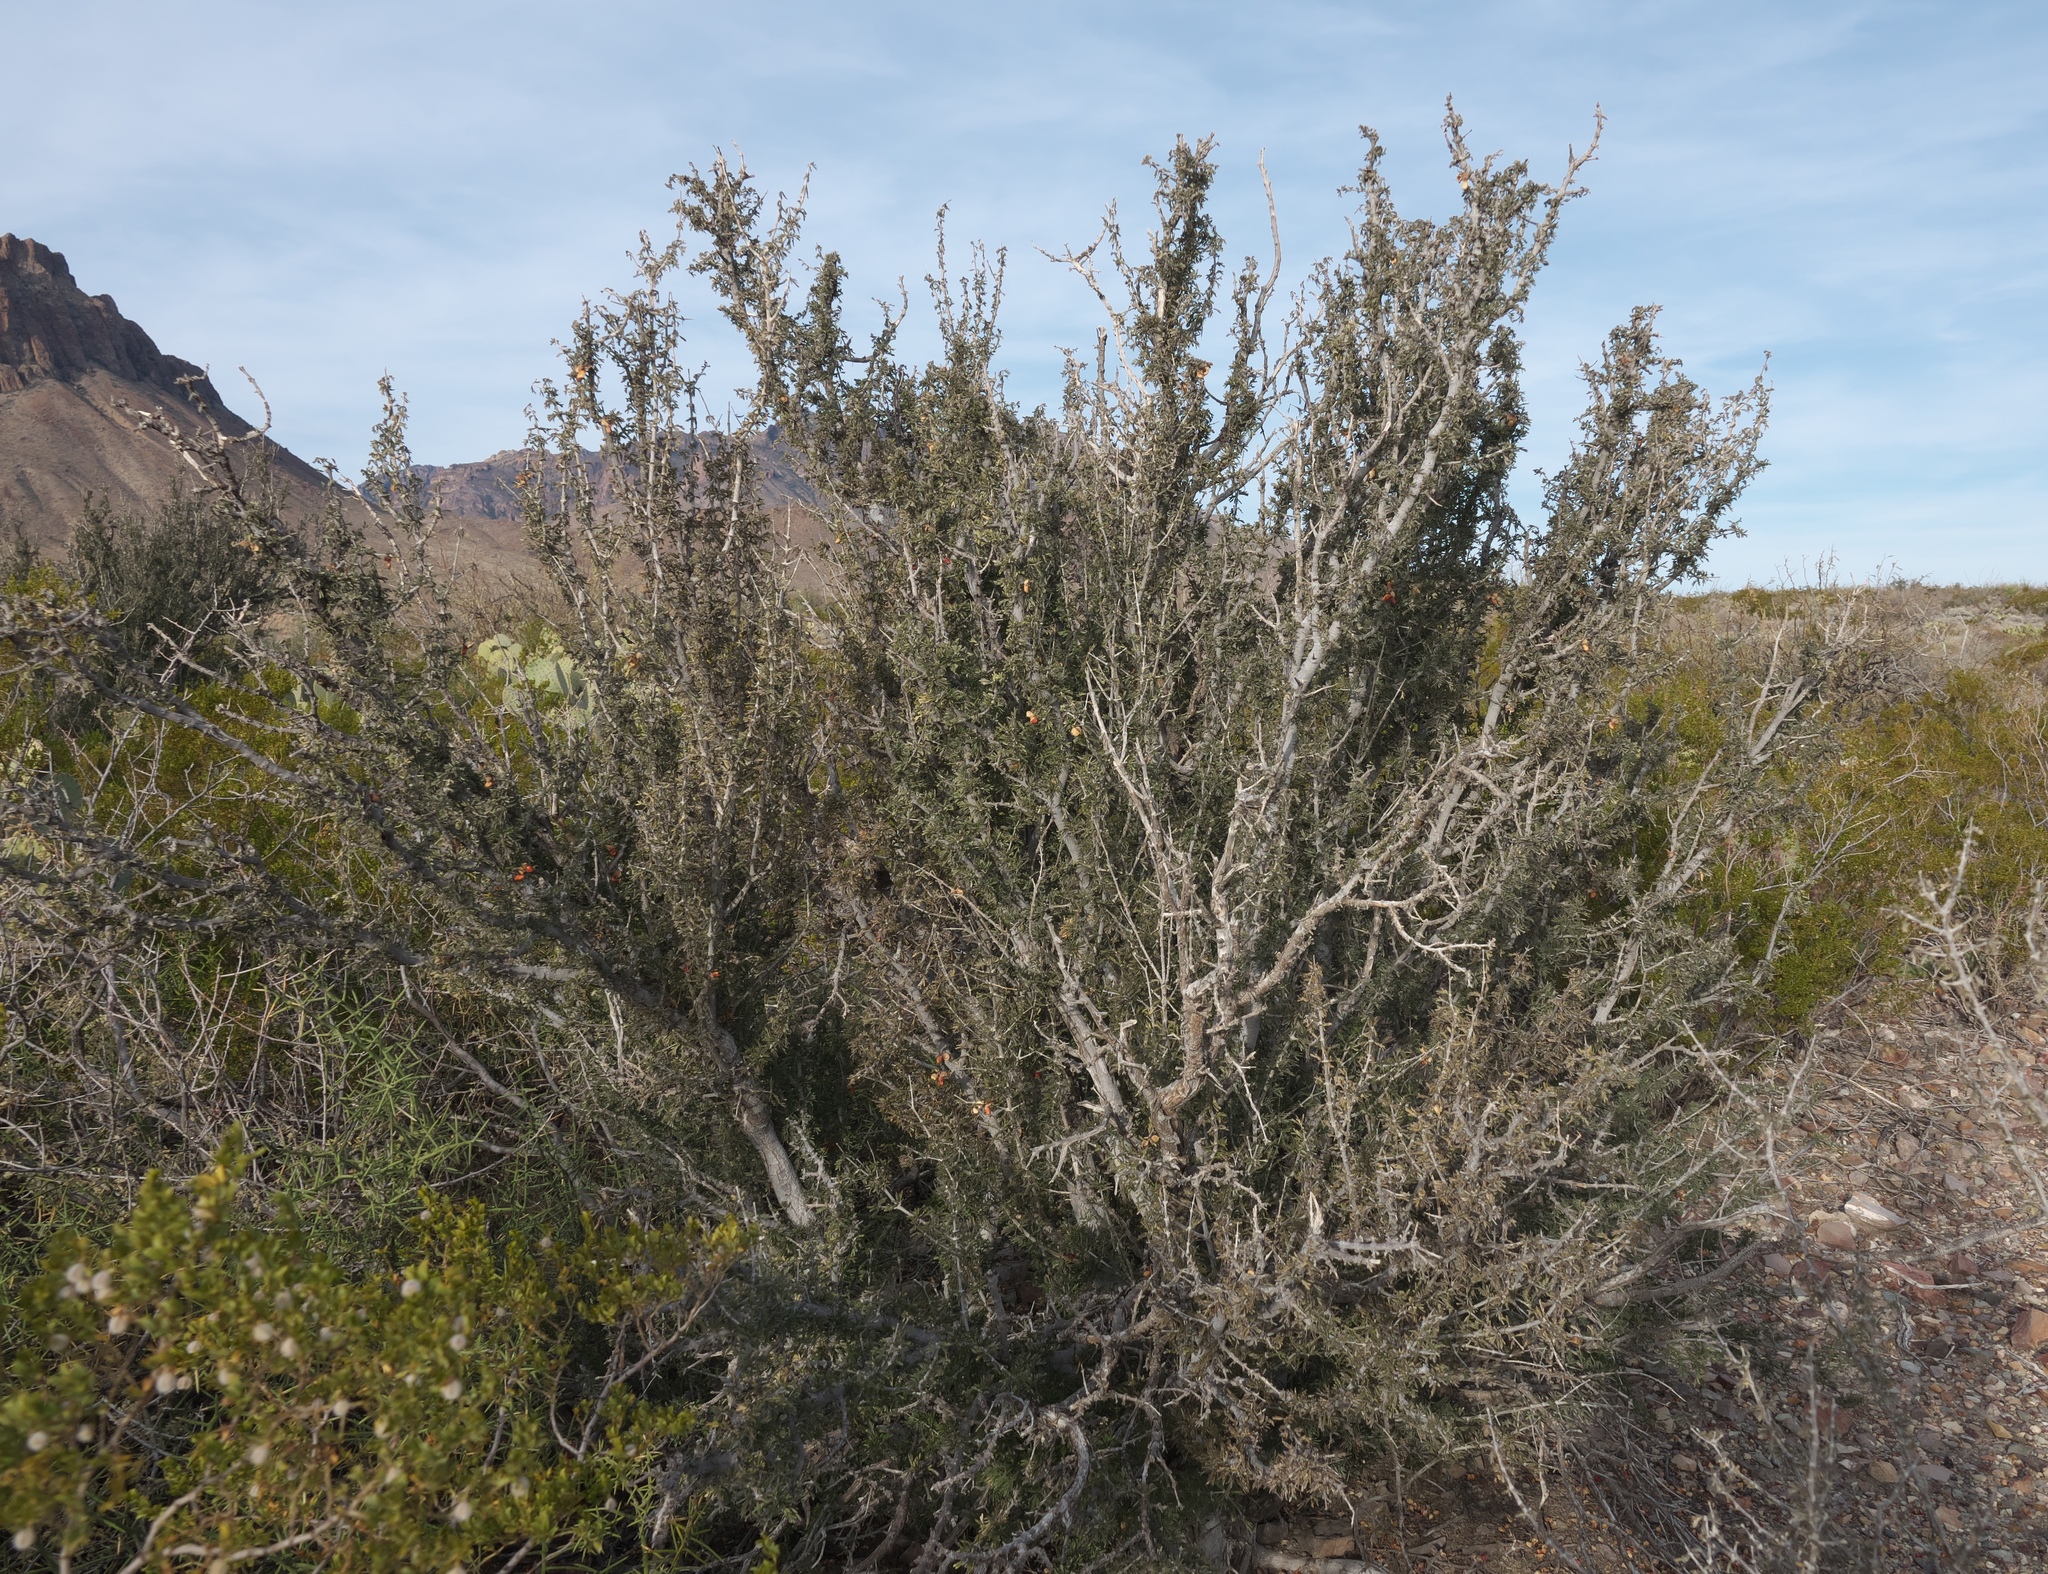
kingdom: Plantae
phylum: Tracheophyta
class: Magnoliopsida
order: Zygophyllales
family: Zygophyllaceae
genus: Porlieria
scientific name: Porlieria angustifolia
